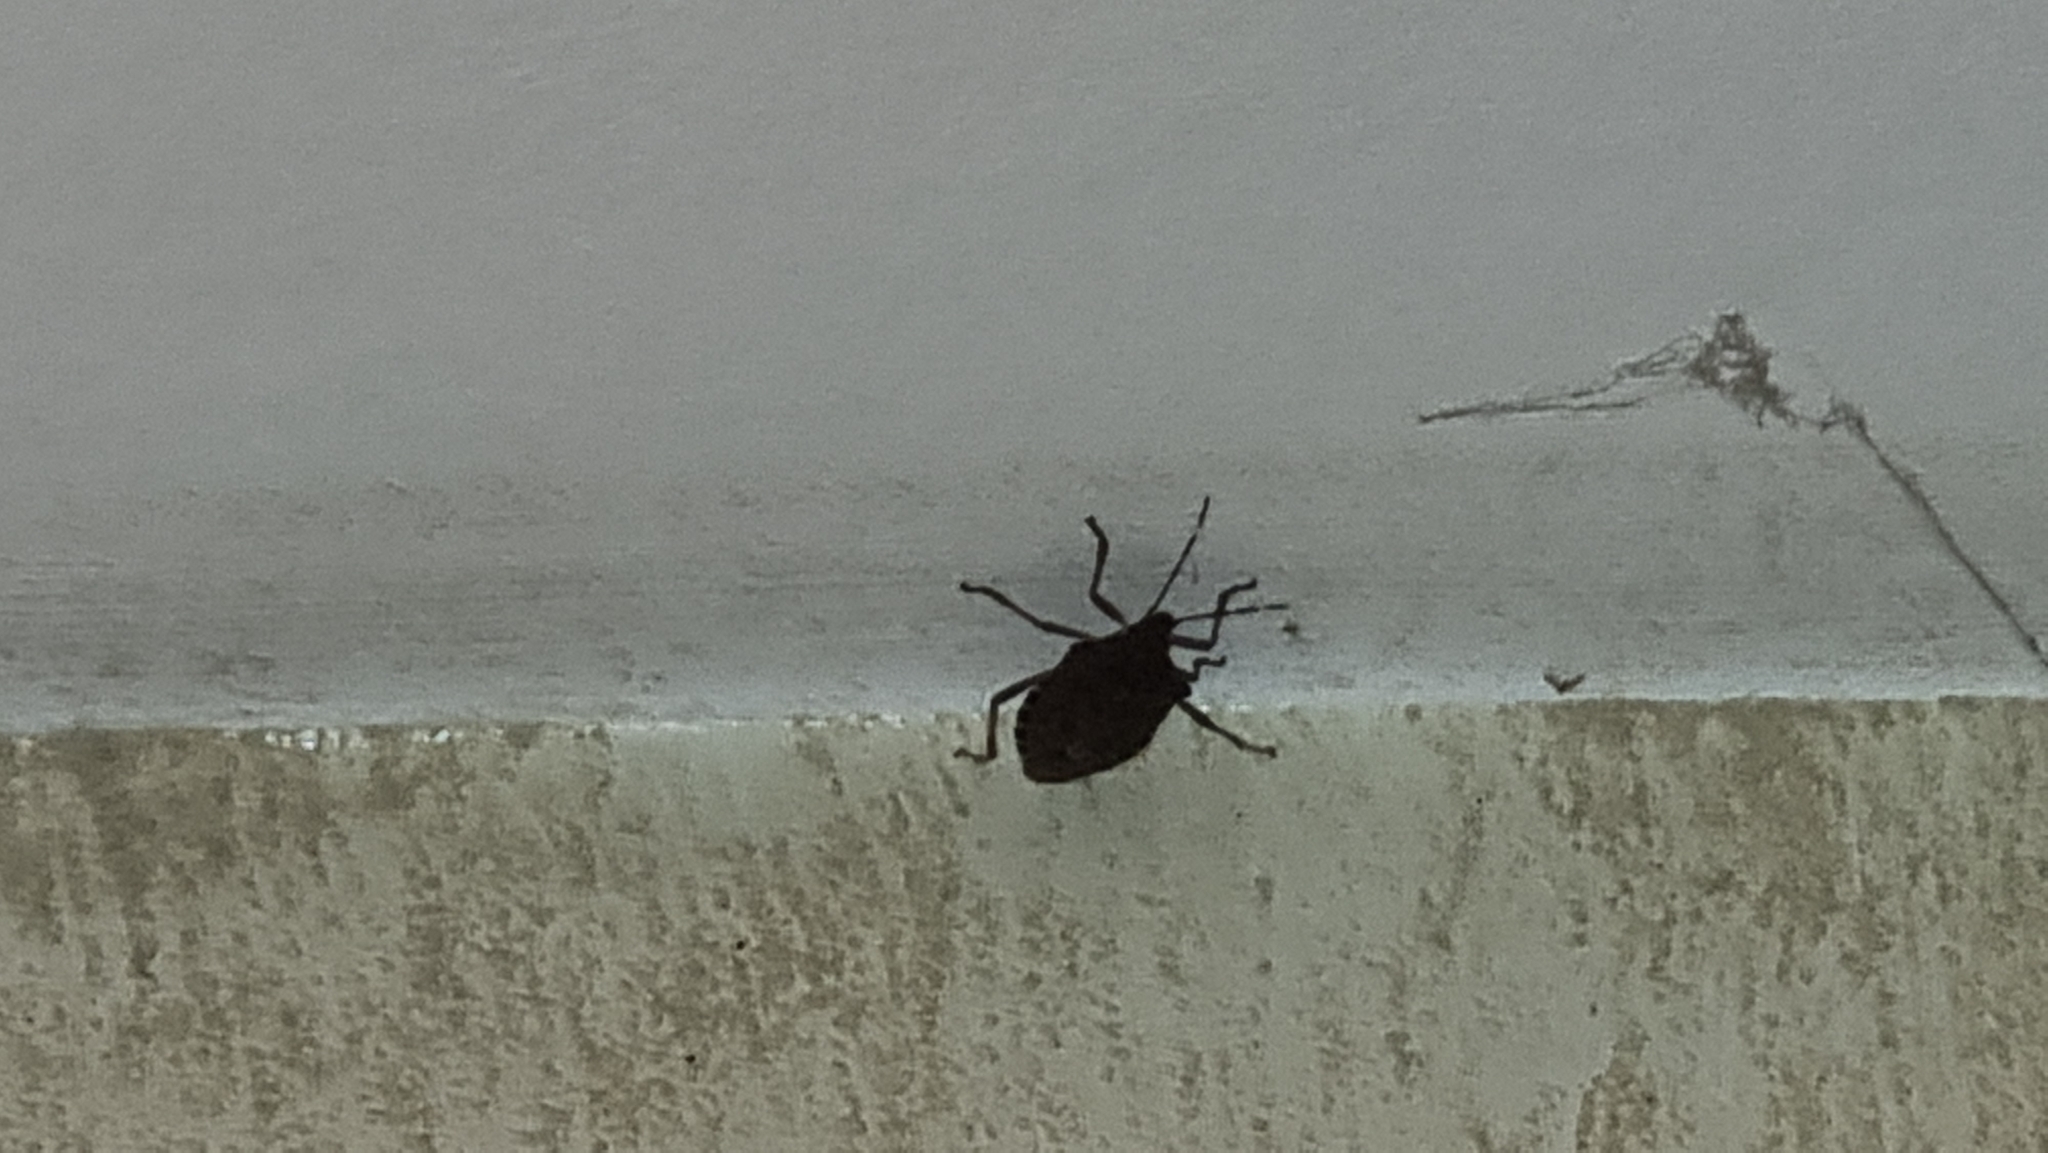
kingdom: Animalia
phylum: Arthropoda
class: Insecta
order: Hemiptera
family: Pentatomidae
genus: Halyomorpha
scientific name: Halyomorpha halys
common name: Brown marmorated stink bug
